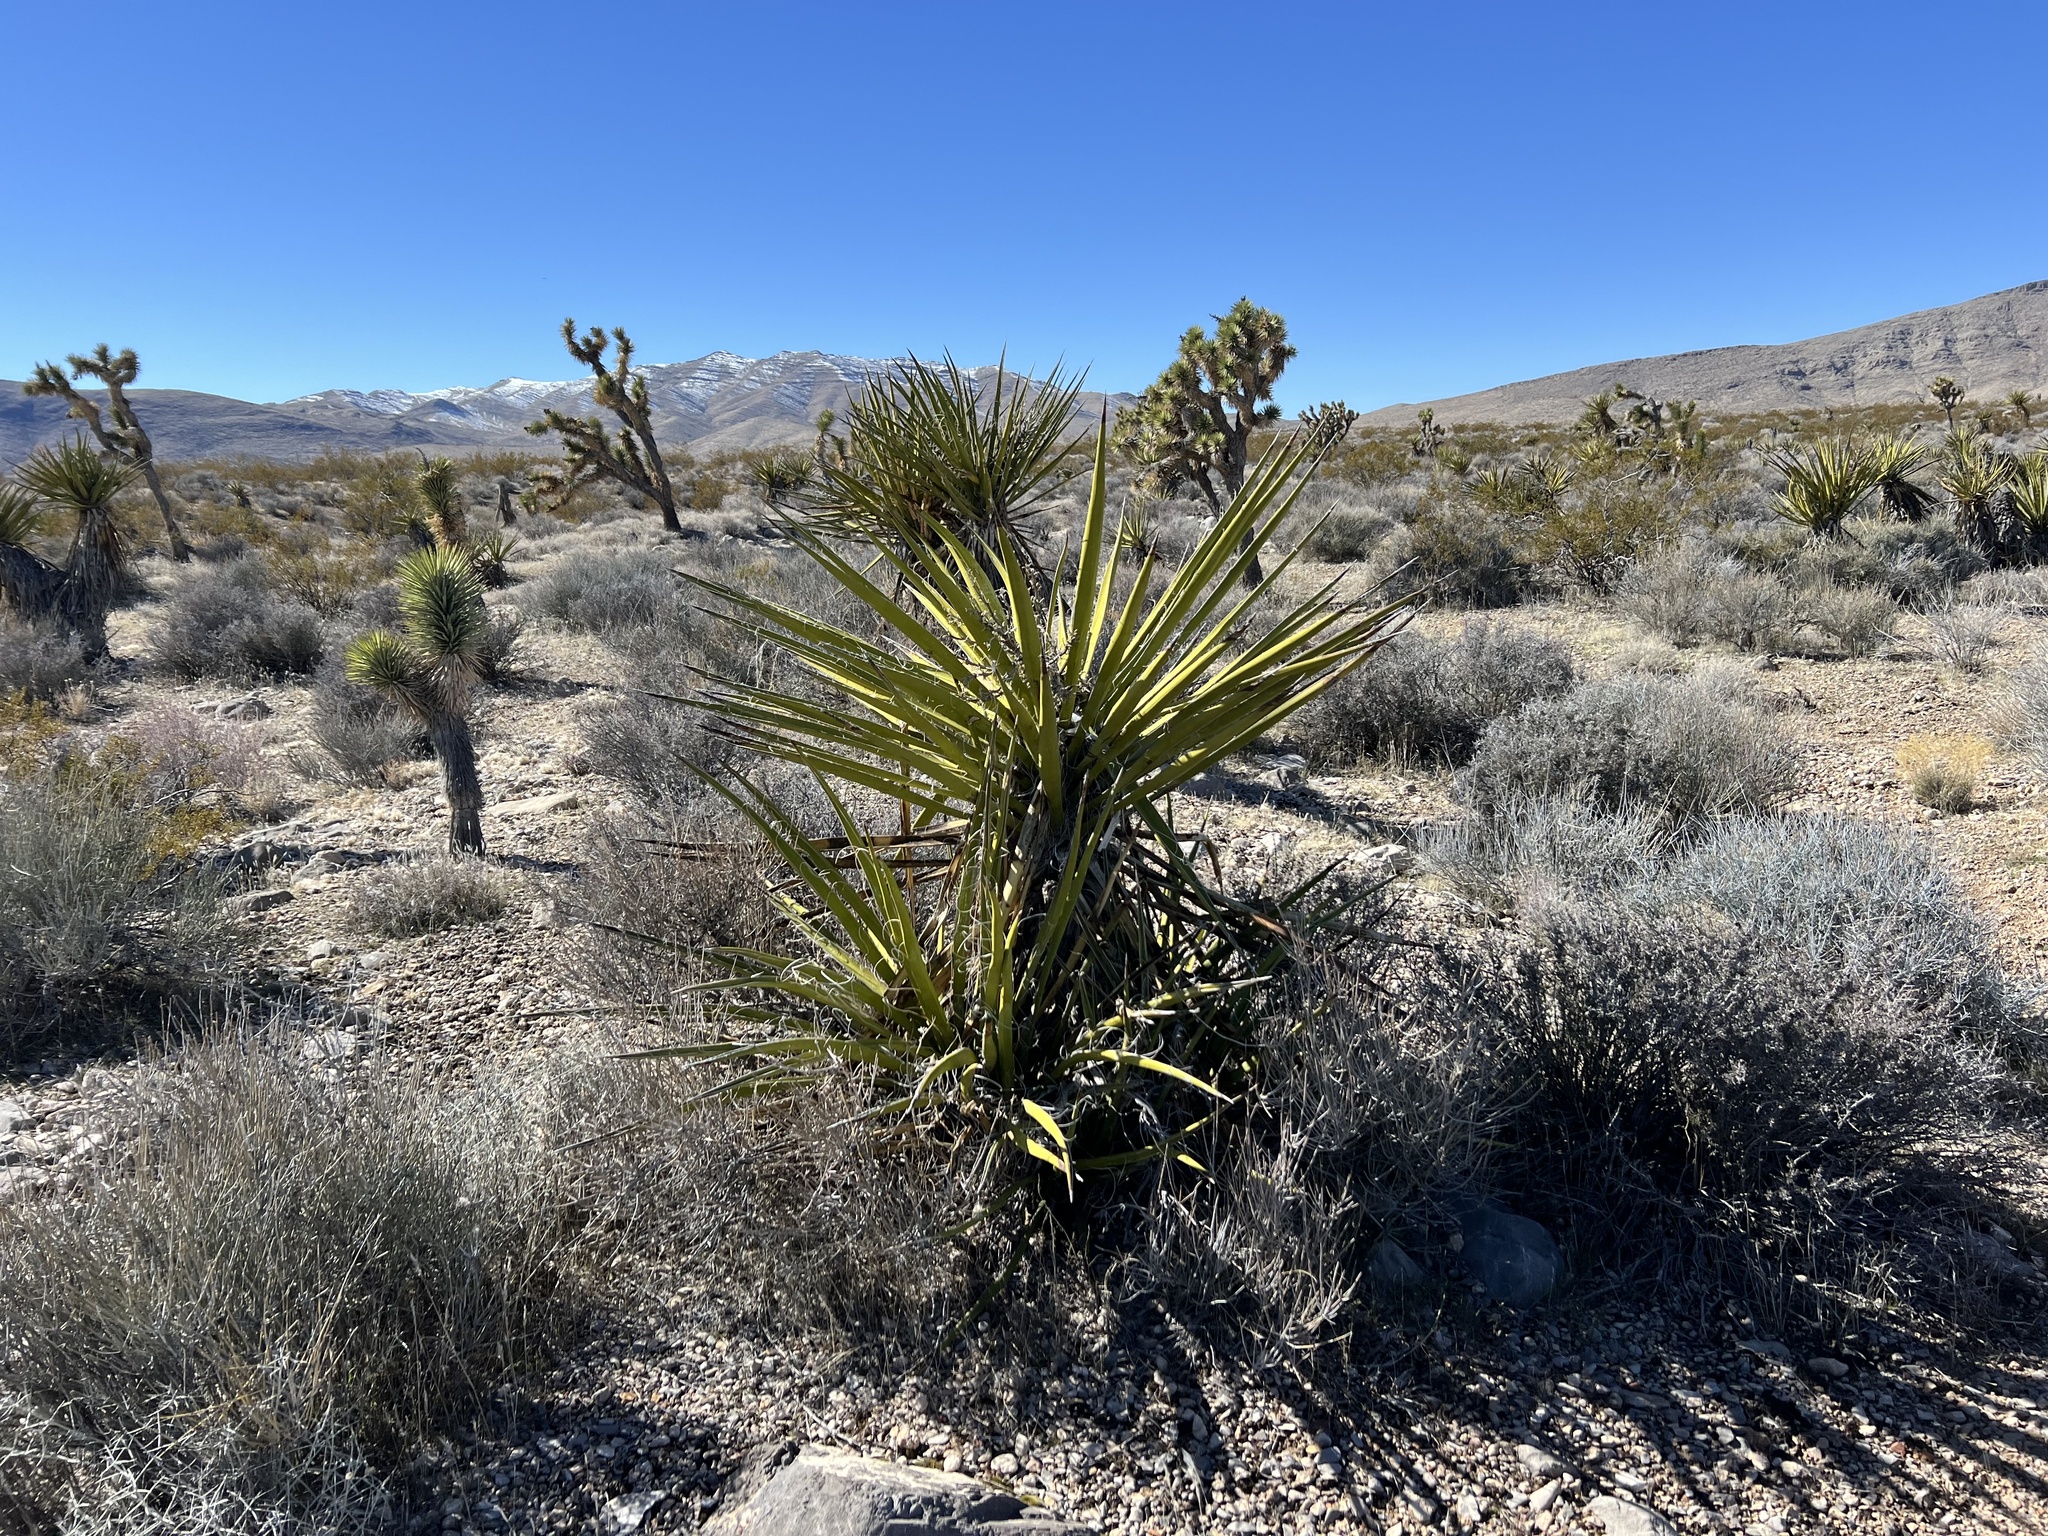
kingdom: Plantae
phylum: Tracheophyta
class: Liliopsida
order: Asparagales
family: Asparagaceae
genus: Yucca
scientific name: Yucca schidigera
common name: Mojave yucca
